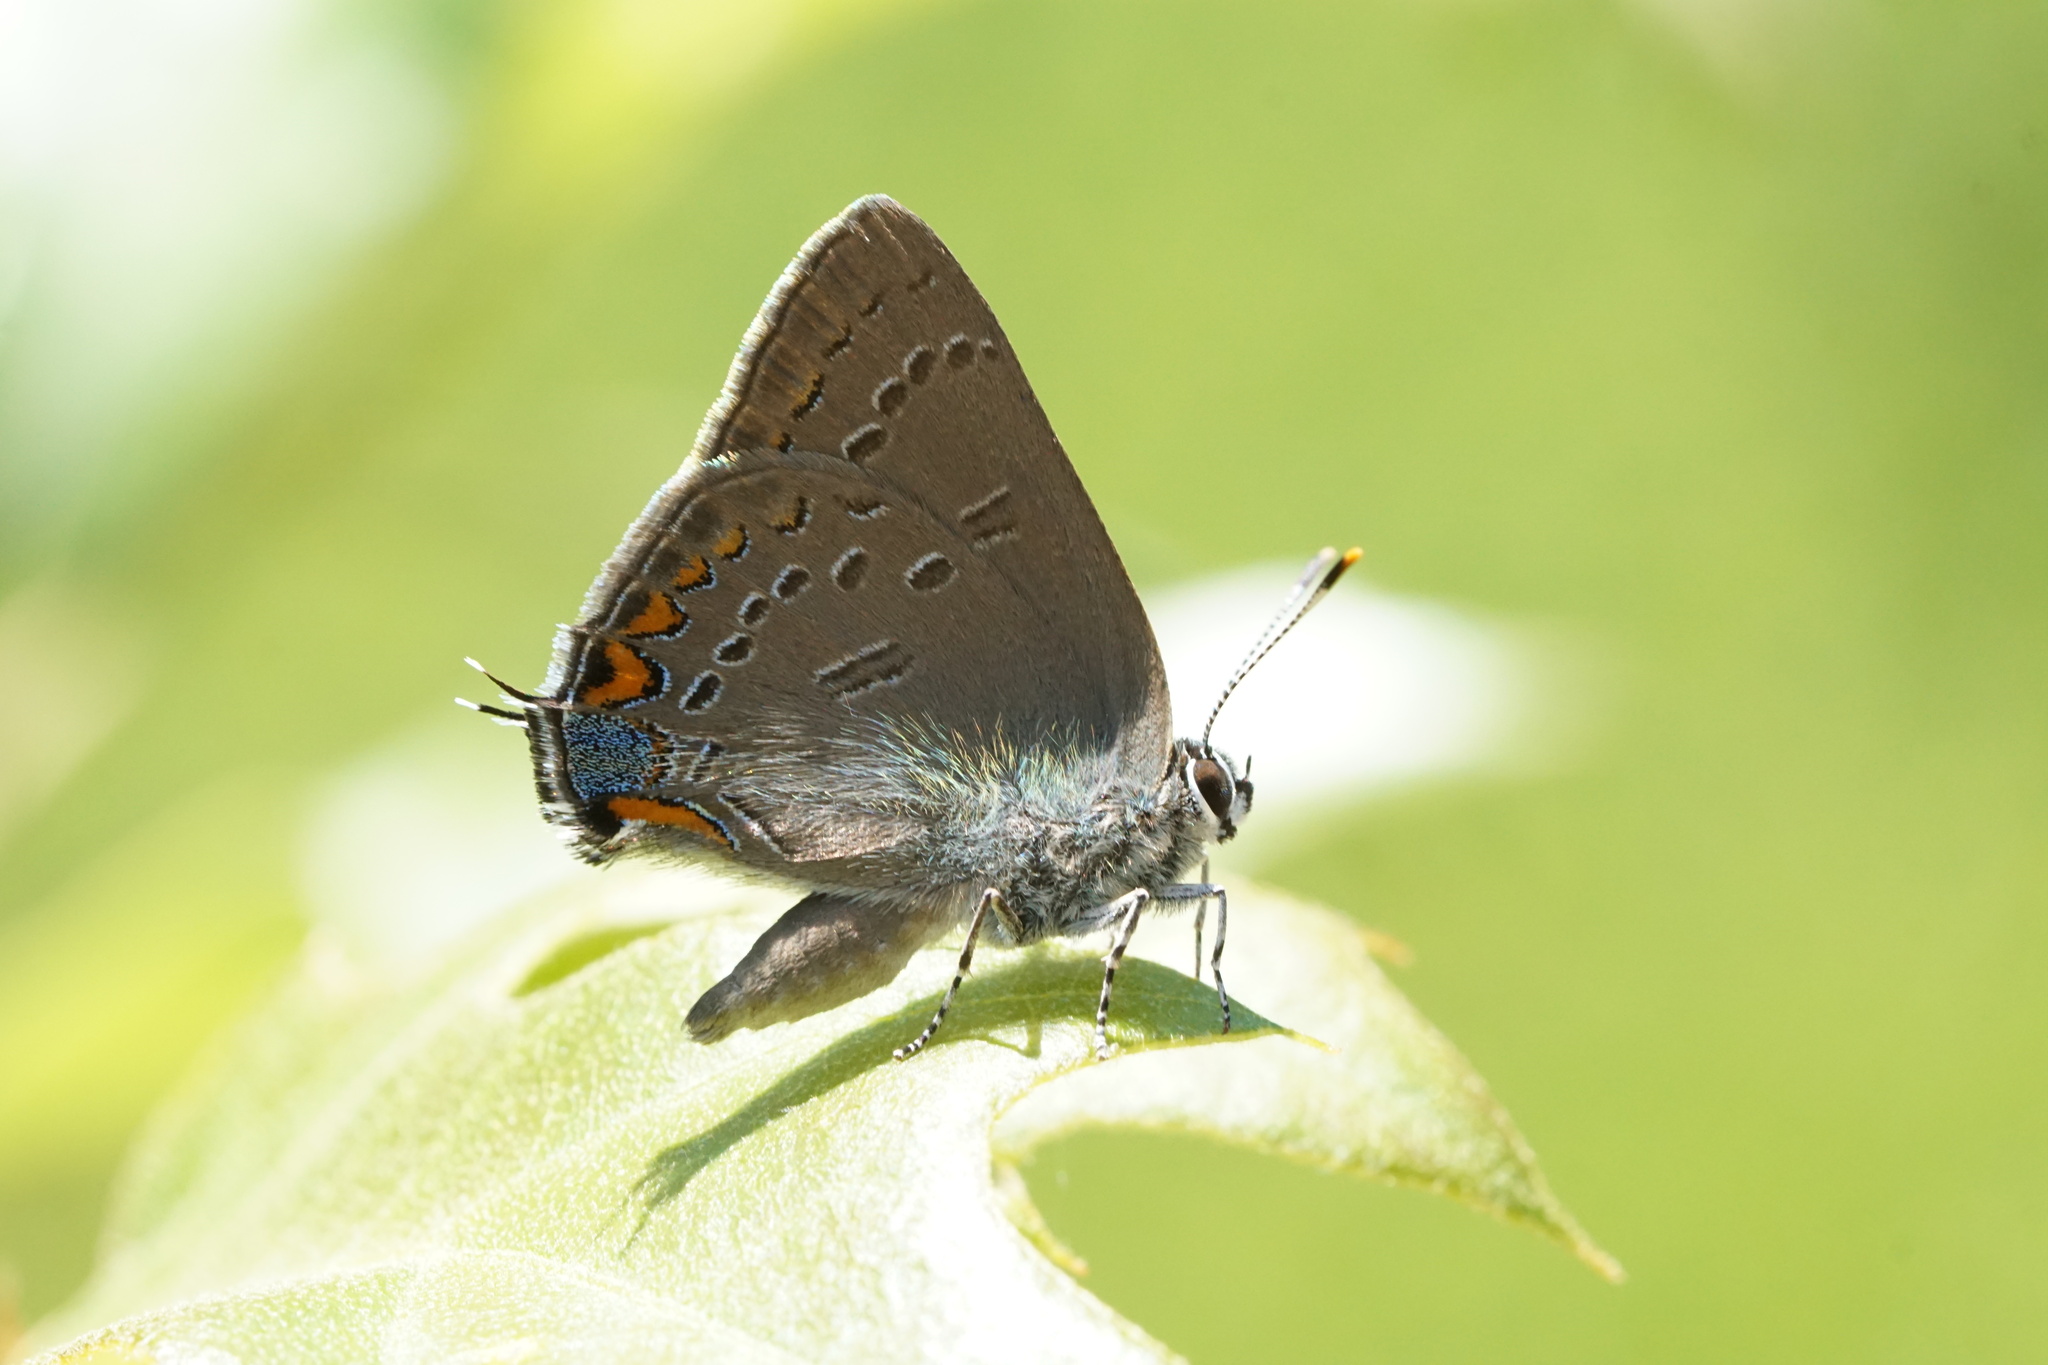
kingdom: Animalia
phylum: Arthropoda
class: Insecta
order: Lepidoptera
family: Lycaenidae
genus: Satyrium
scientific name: Satyrium edwardsii
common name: Edwards' hairstreak
